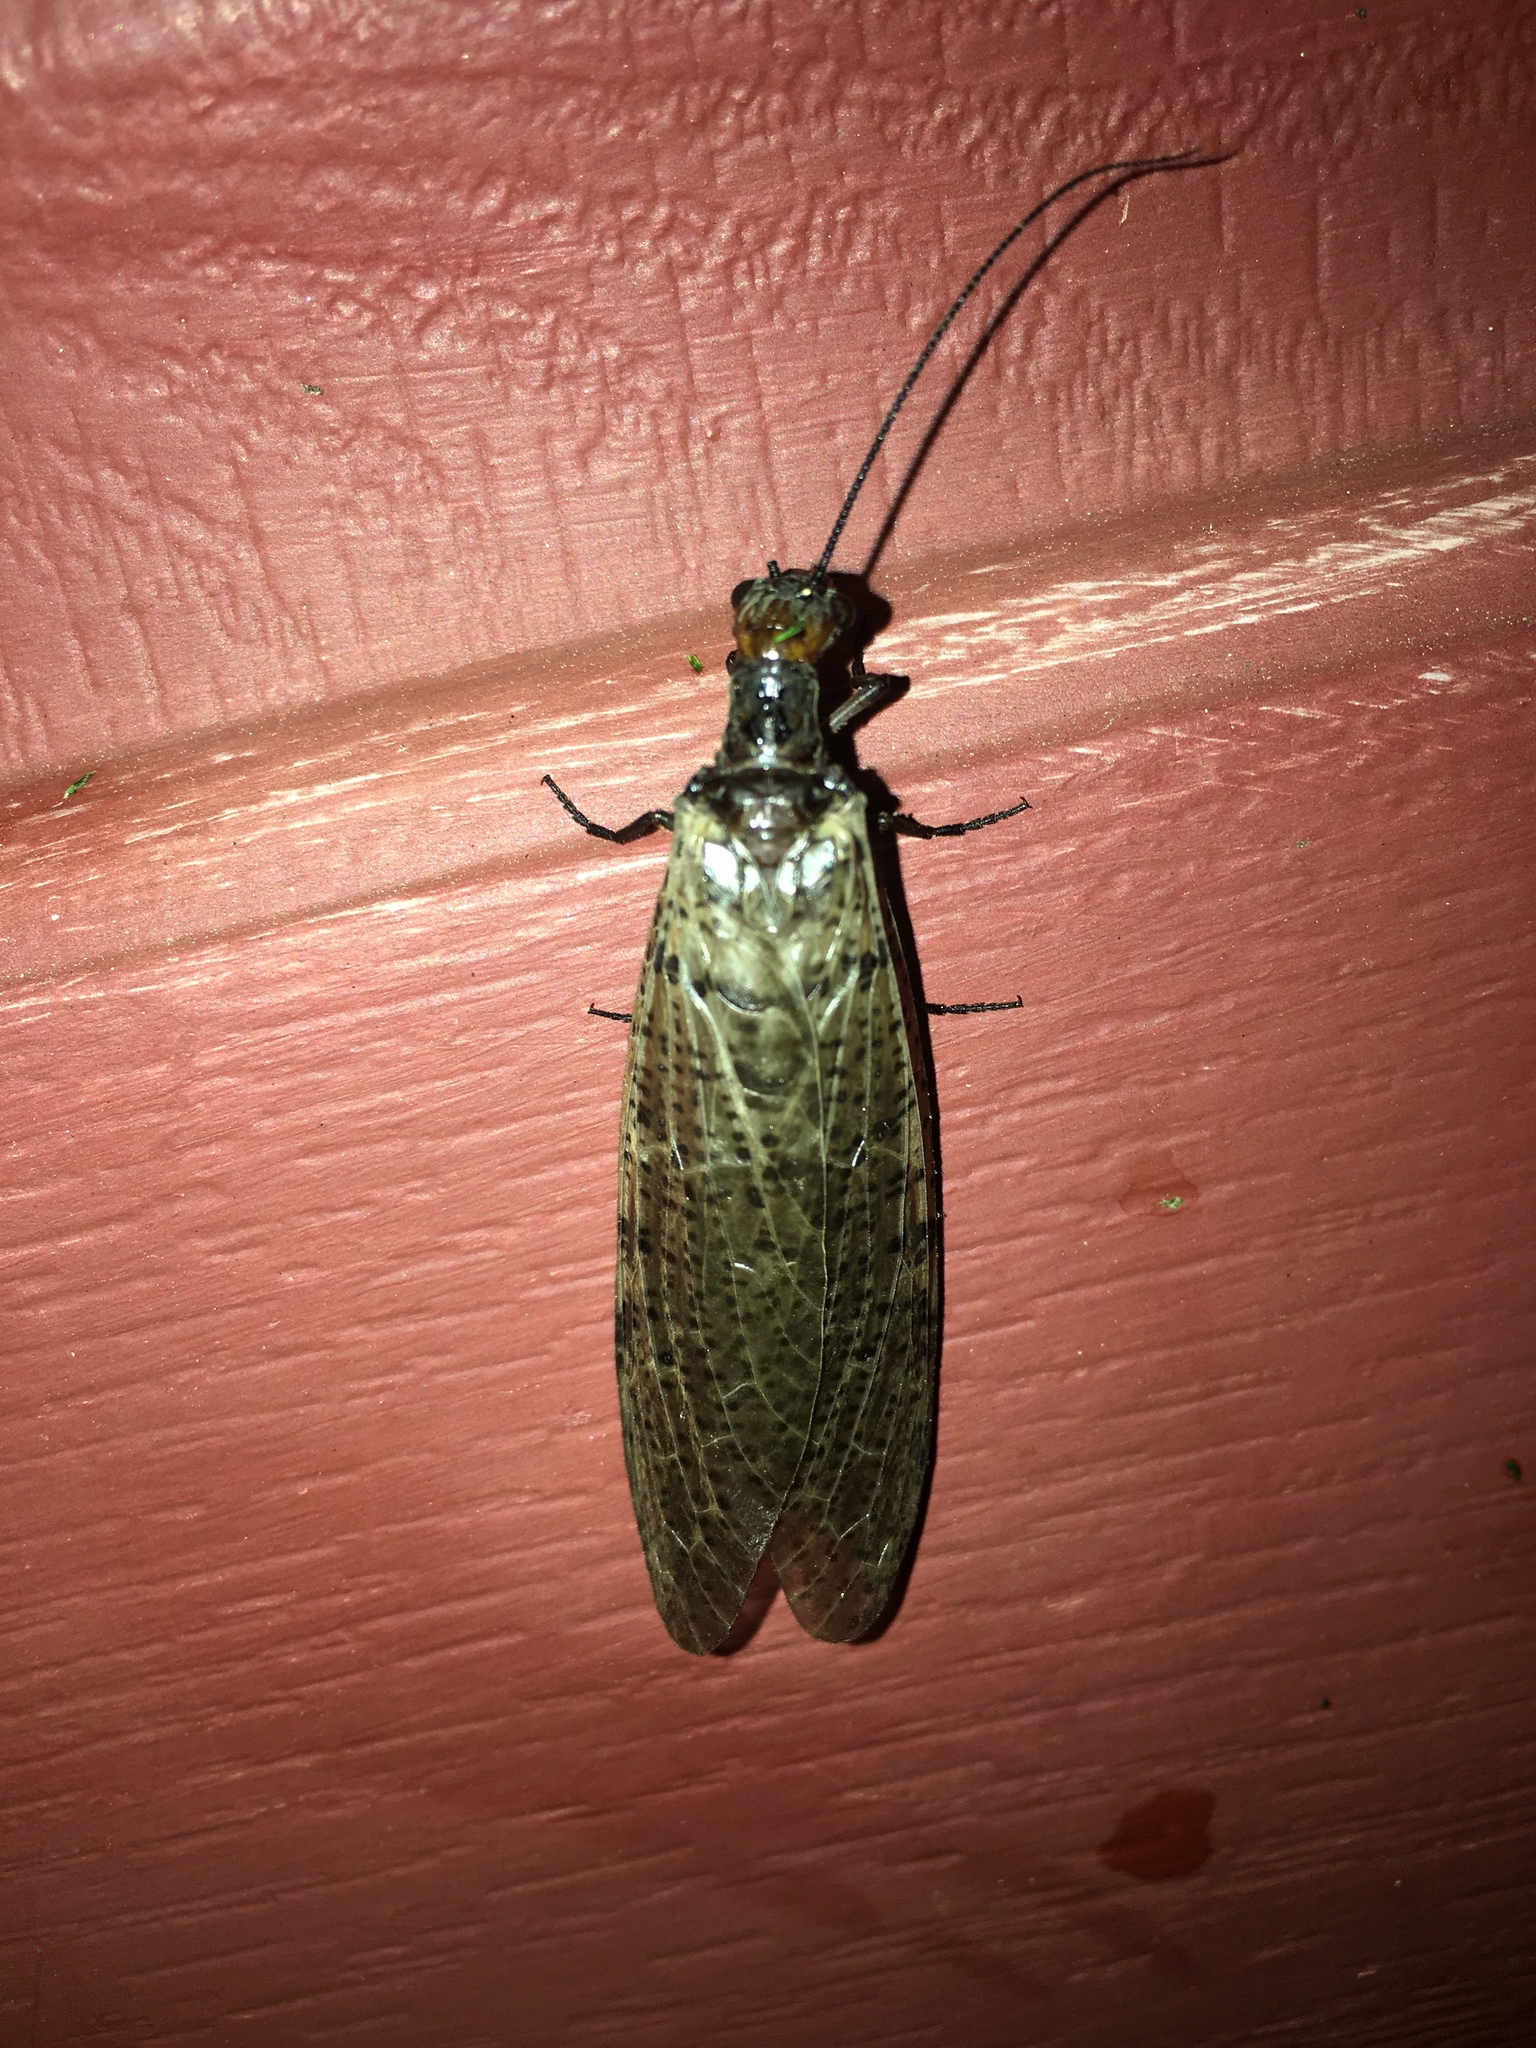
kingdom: Animalia
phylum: Arthropoda
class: Insecta
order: Megaloptera
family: Corydalidae
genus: Neohermes
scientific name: Neohermes concolor
